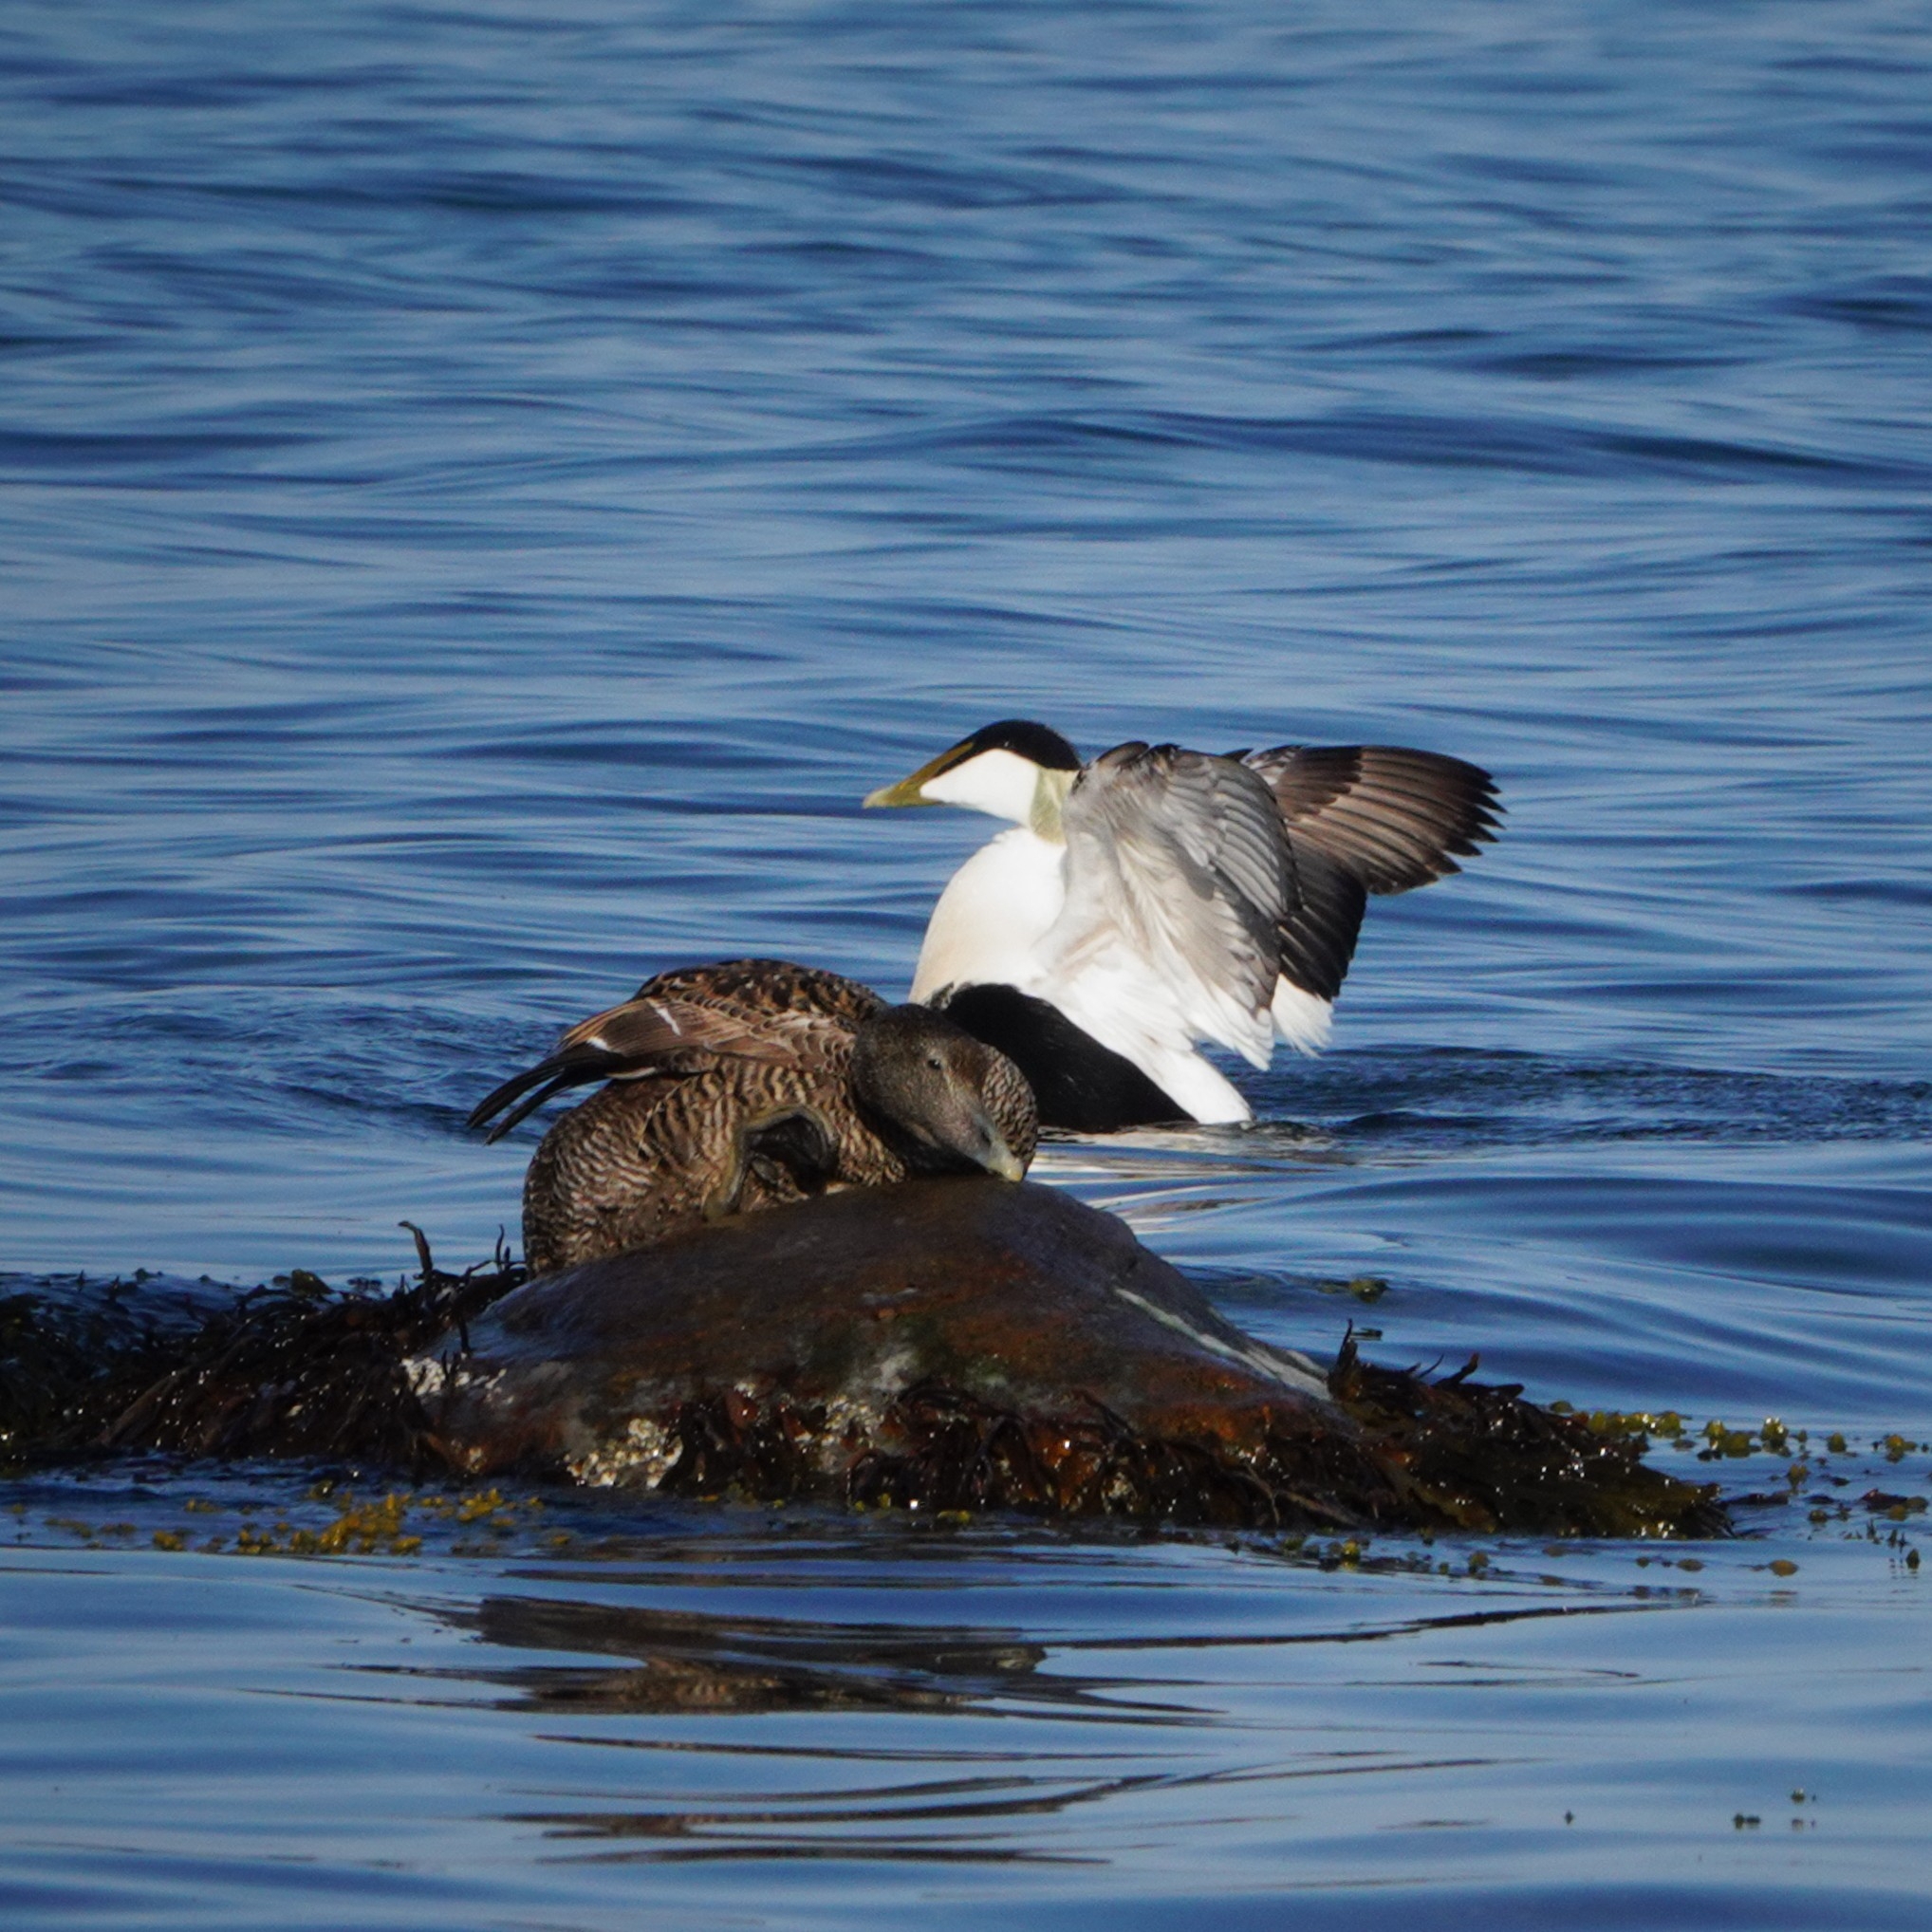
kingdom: Animalia
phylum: Chordata
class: Aves
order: Anseriformes
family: Anatidae
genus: Somateria
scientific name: Somateria mollissima
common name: Common eider
